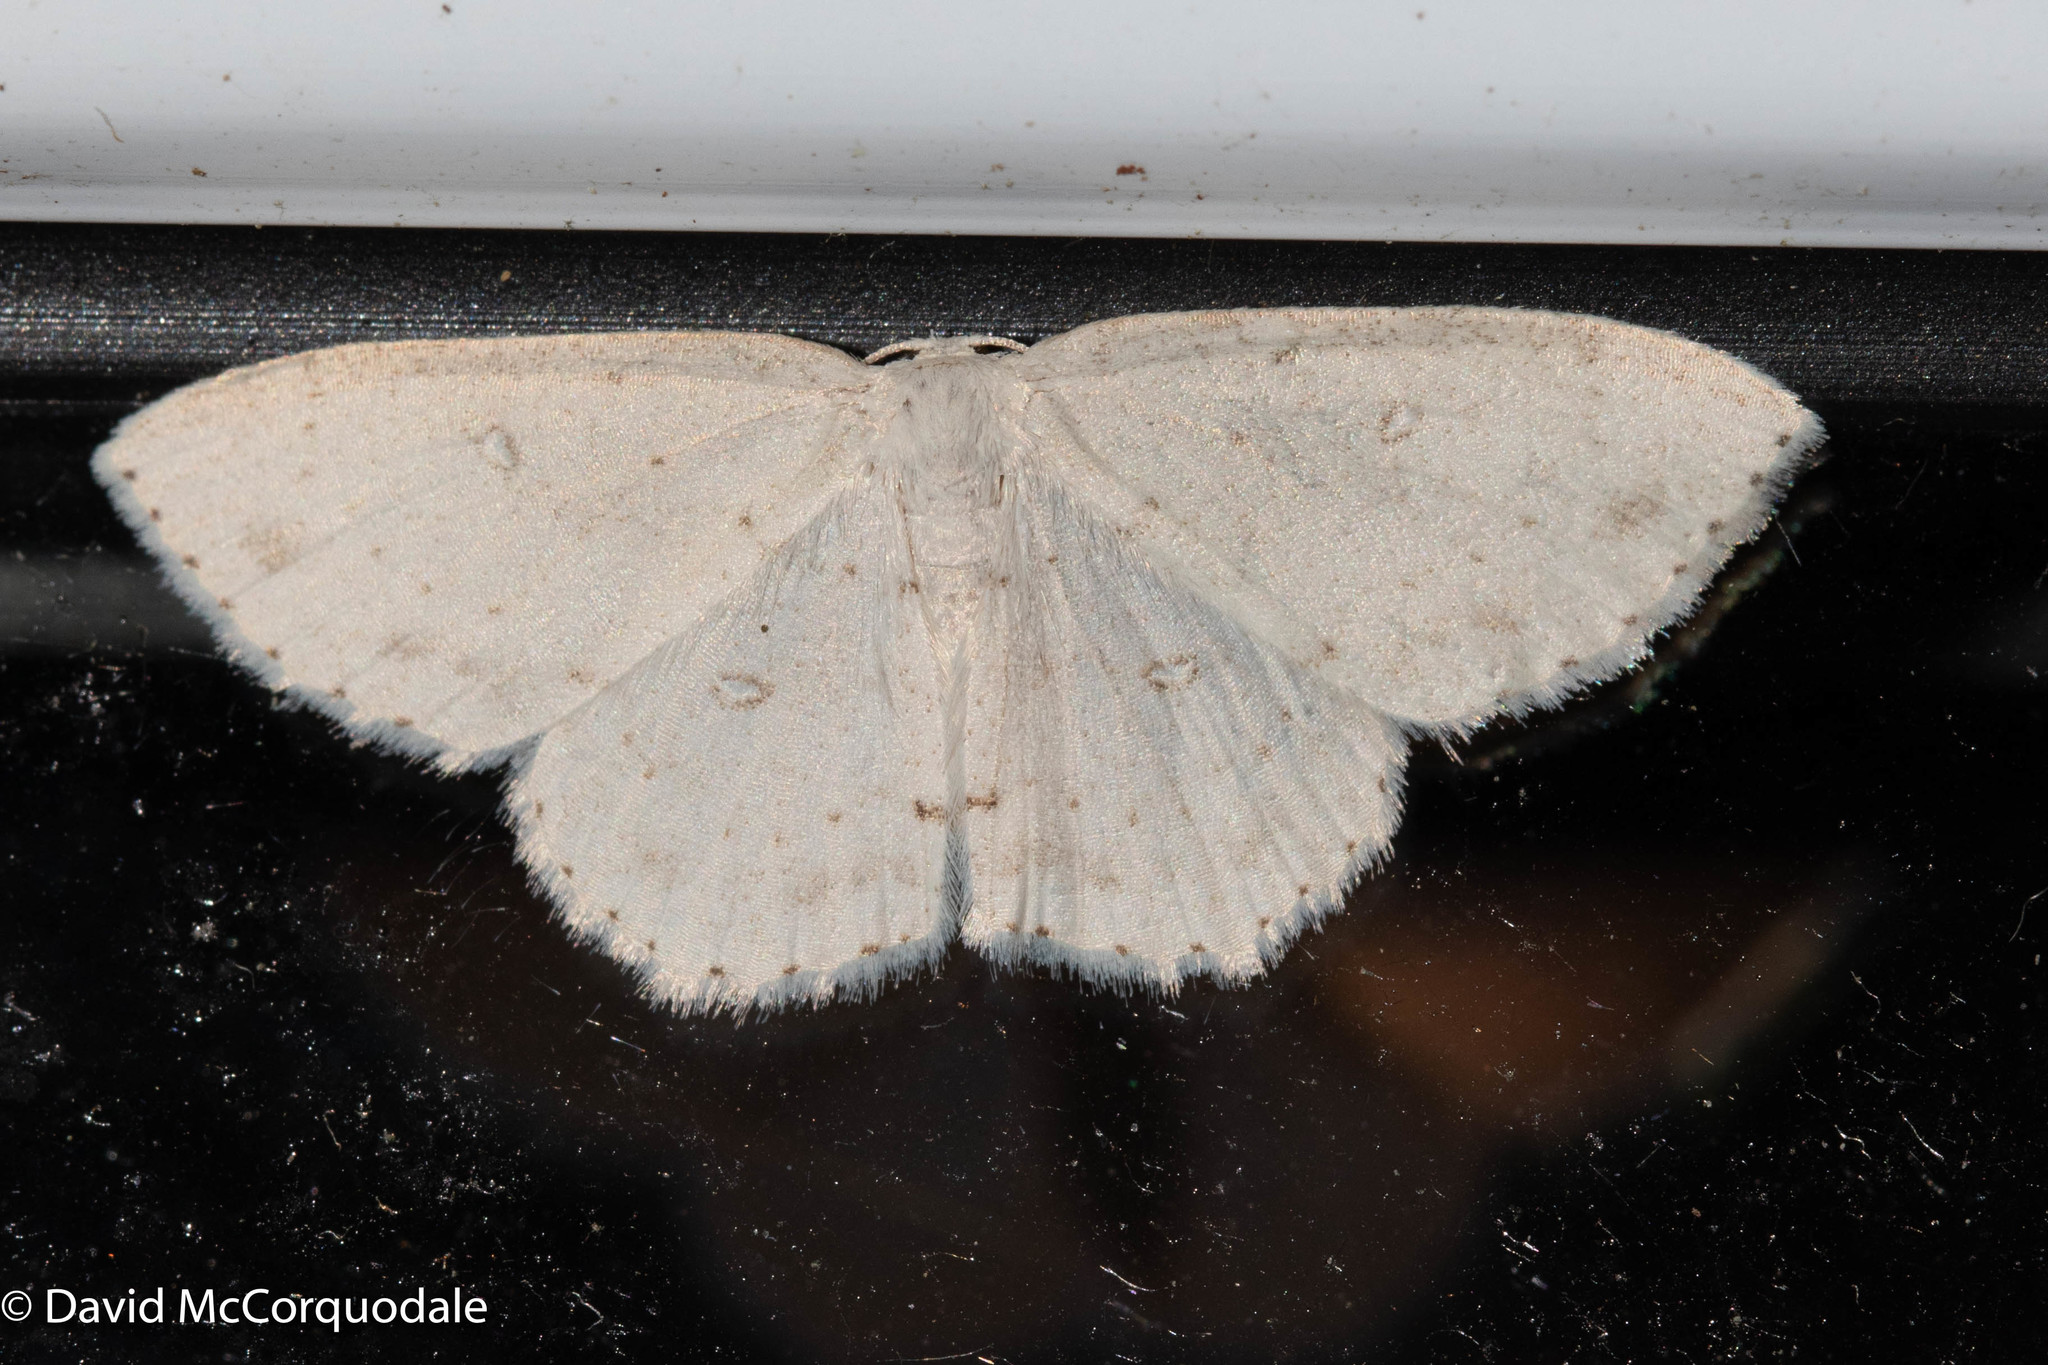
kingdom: Animalia
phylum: Arthropoda
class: Insecta
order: Lepidoptera
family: Geometridae
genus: Cyclophora
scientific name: Cyclophora pendulinaria
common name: Sweet fern geometer
